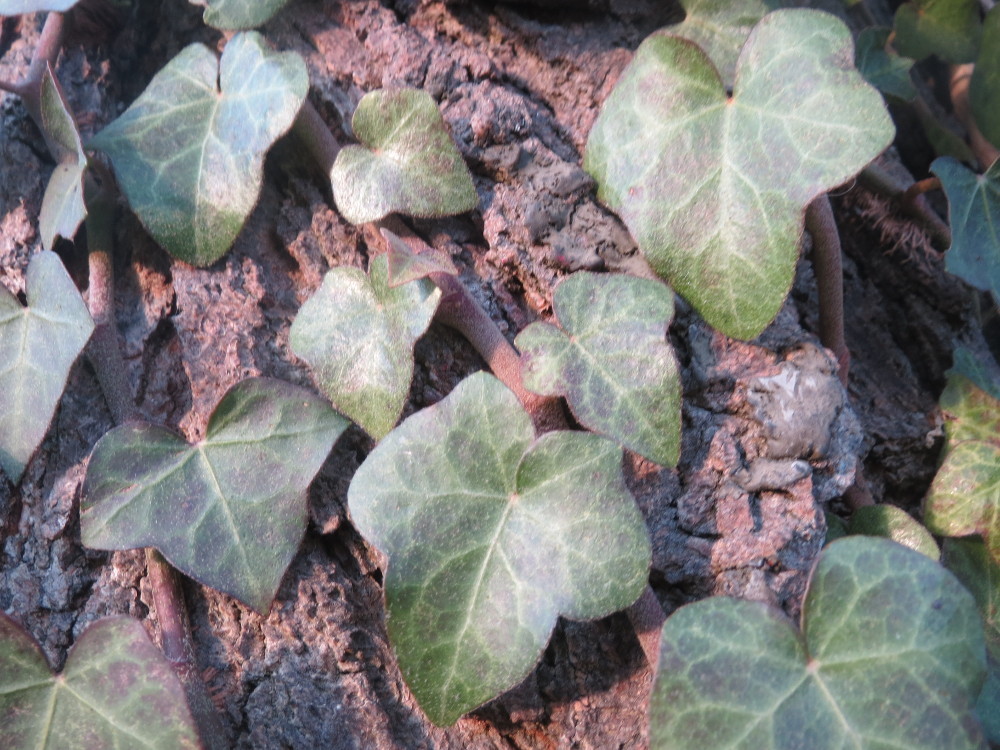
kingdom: Plantae
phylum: Tracheophyta
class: Magnoliopsida
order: Apiales
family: Araliaceae
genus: Hedera
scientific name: Hedera helix
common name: Ivy
